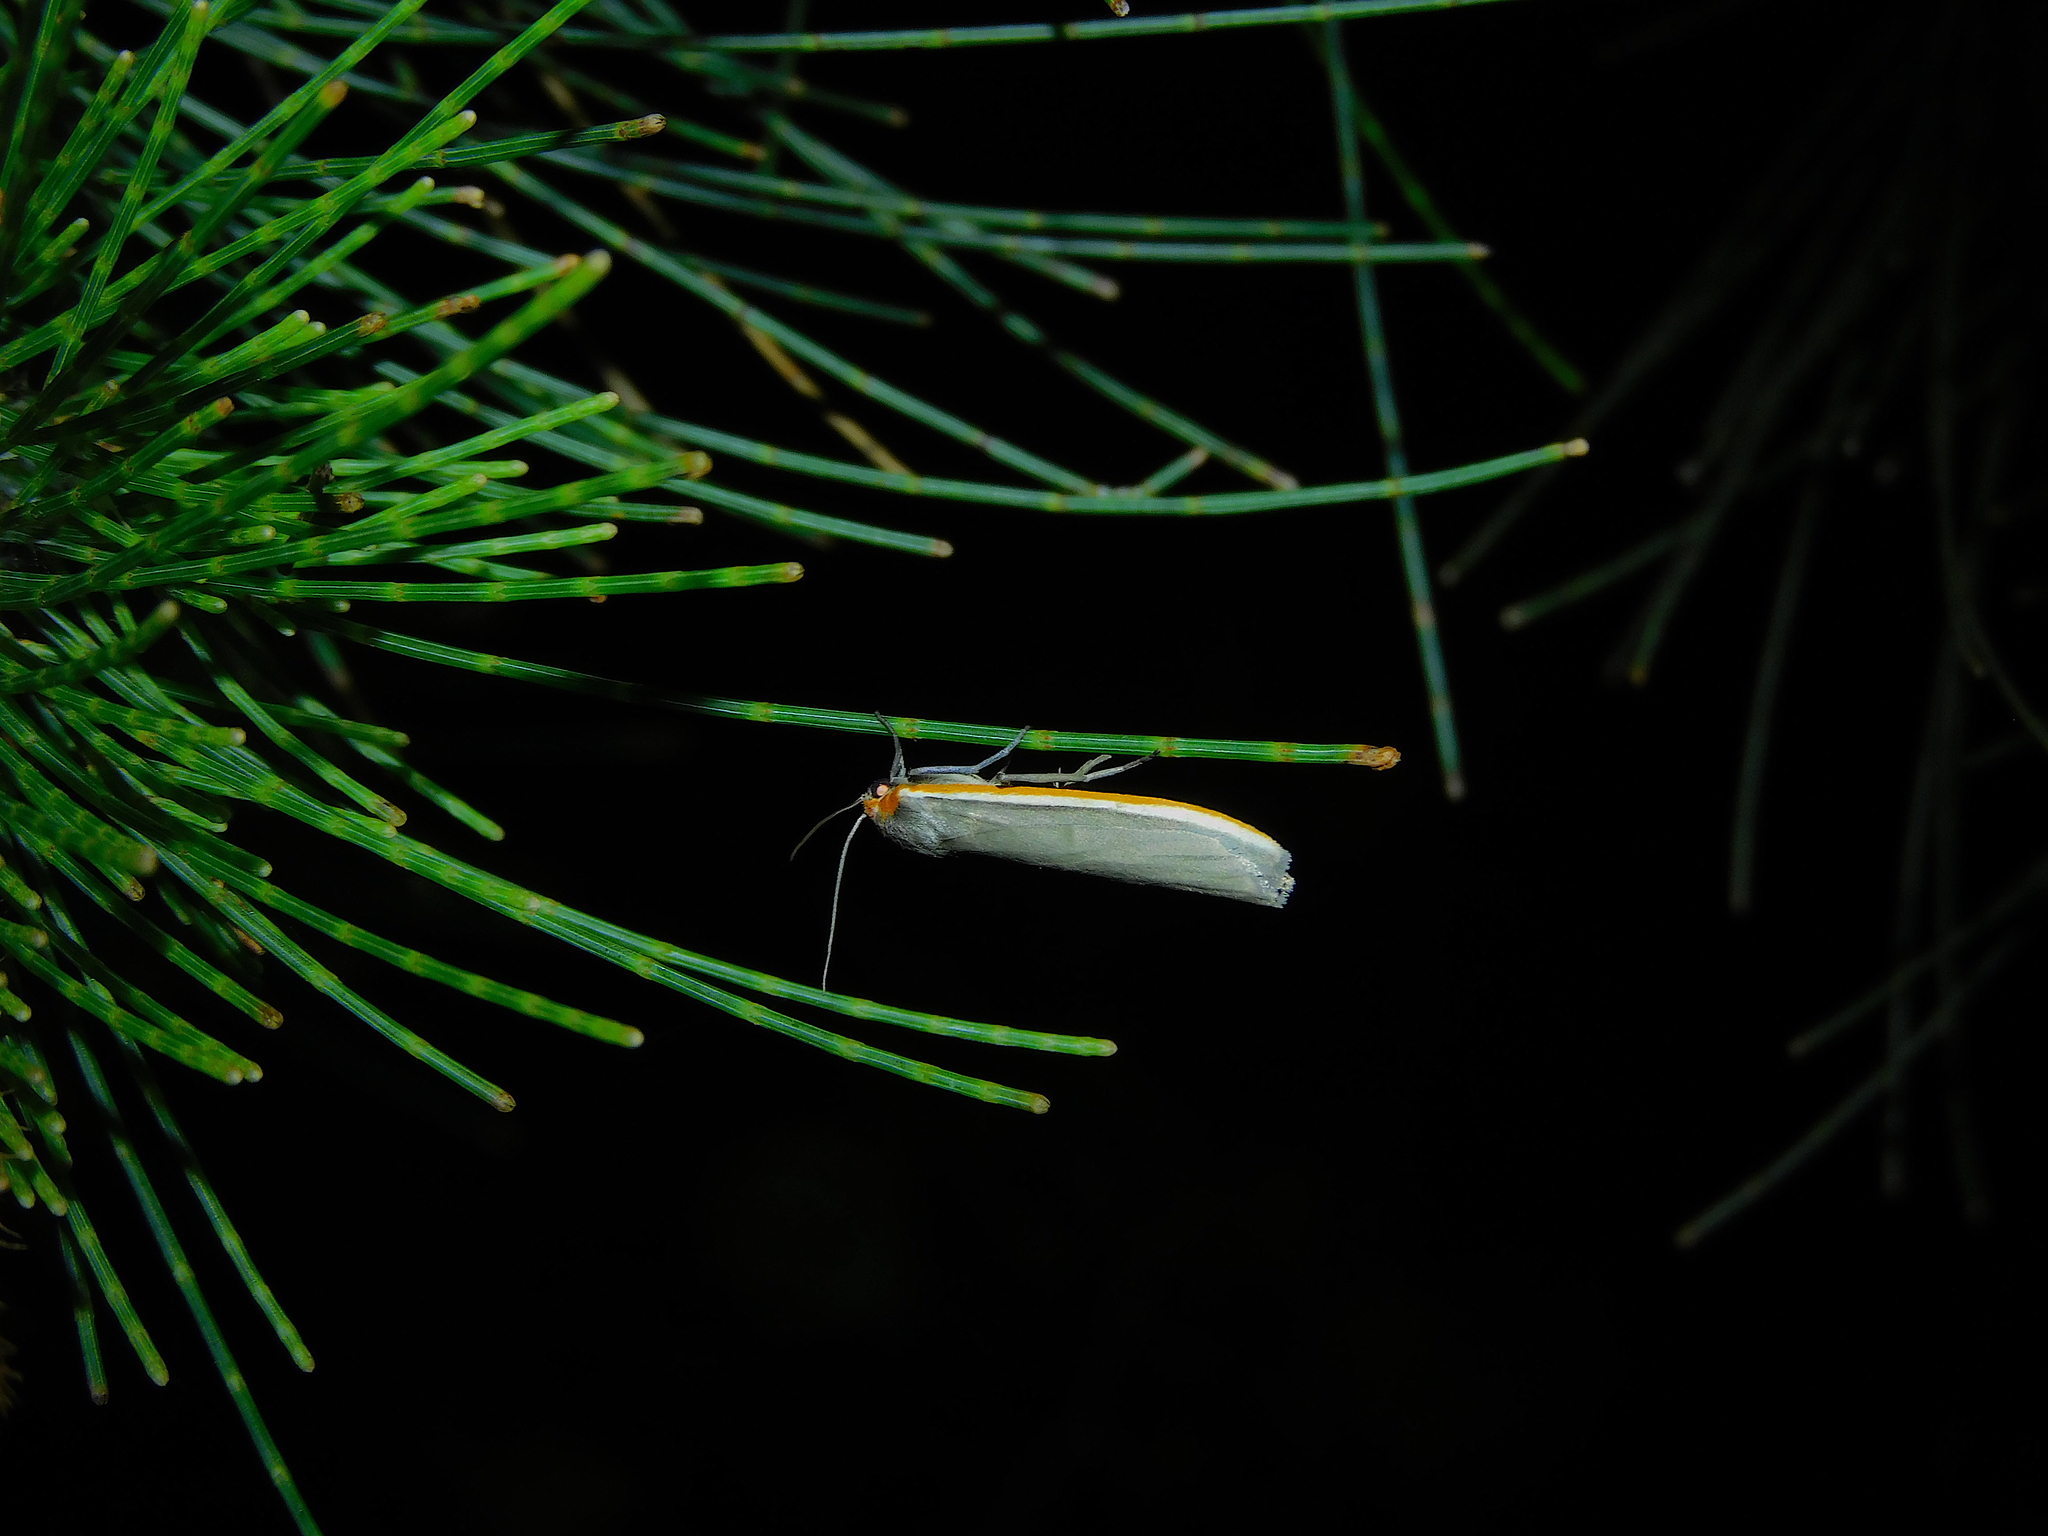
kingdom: Animalia
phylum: Arthropoda
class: Insecta
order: Lepidoptera
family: Erebidae
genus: Palaeosia
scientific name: Palaeosia bicosta
